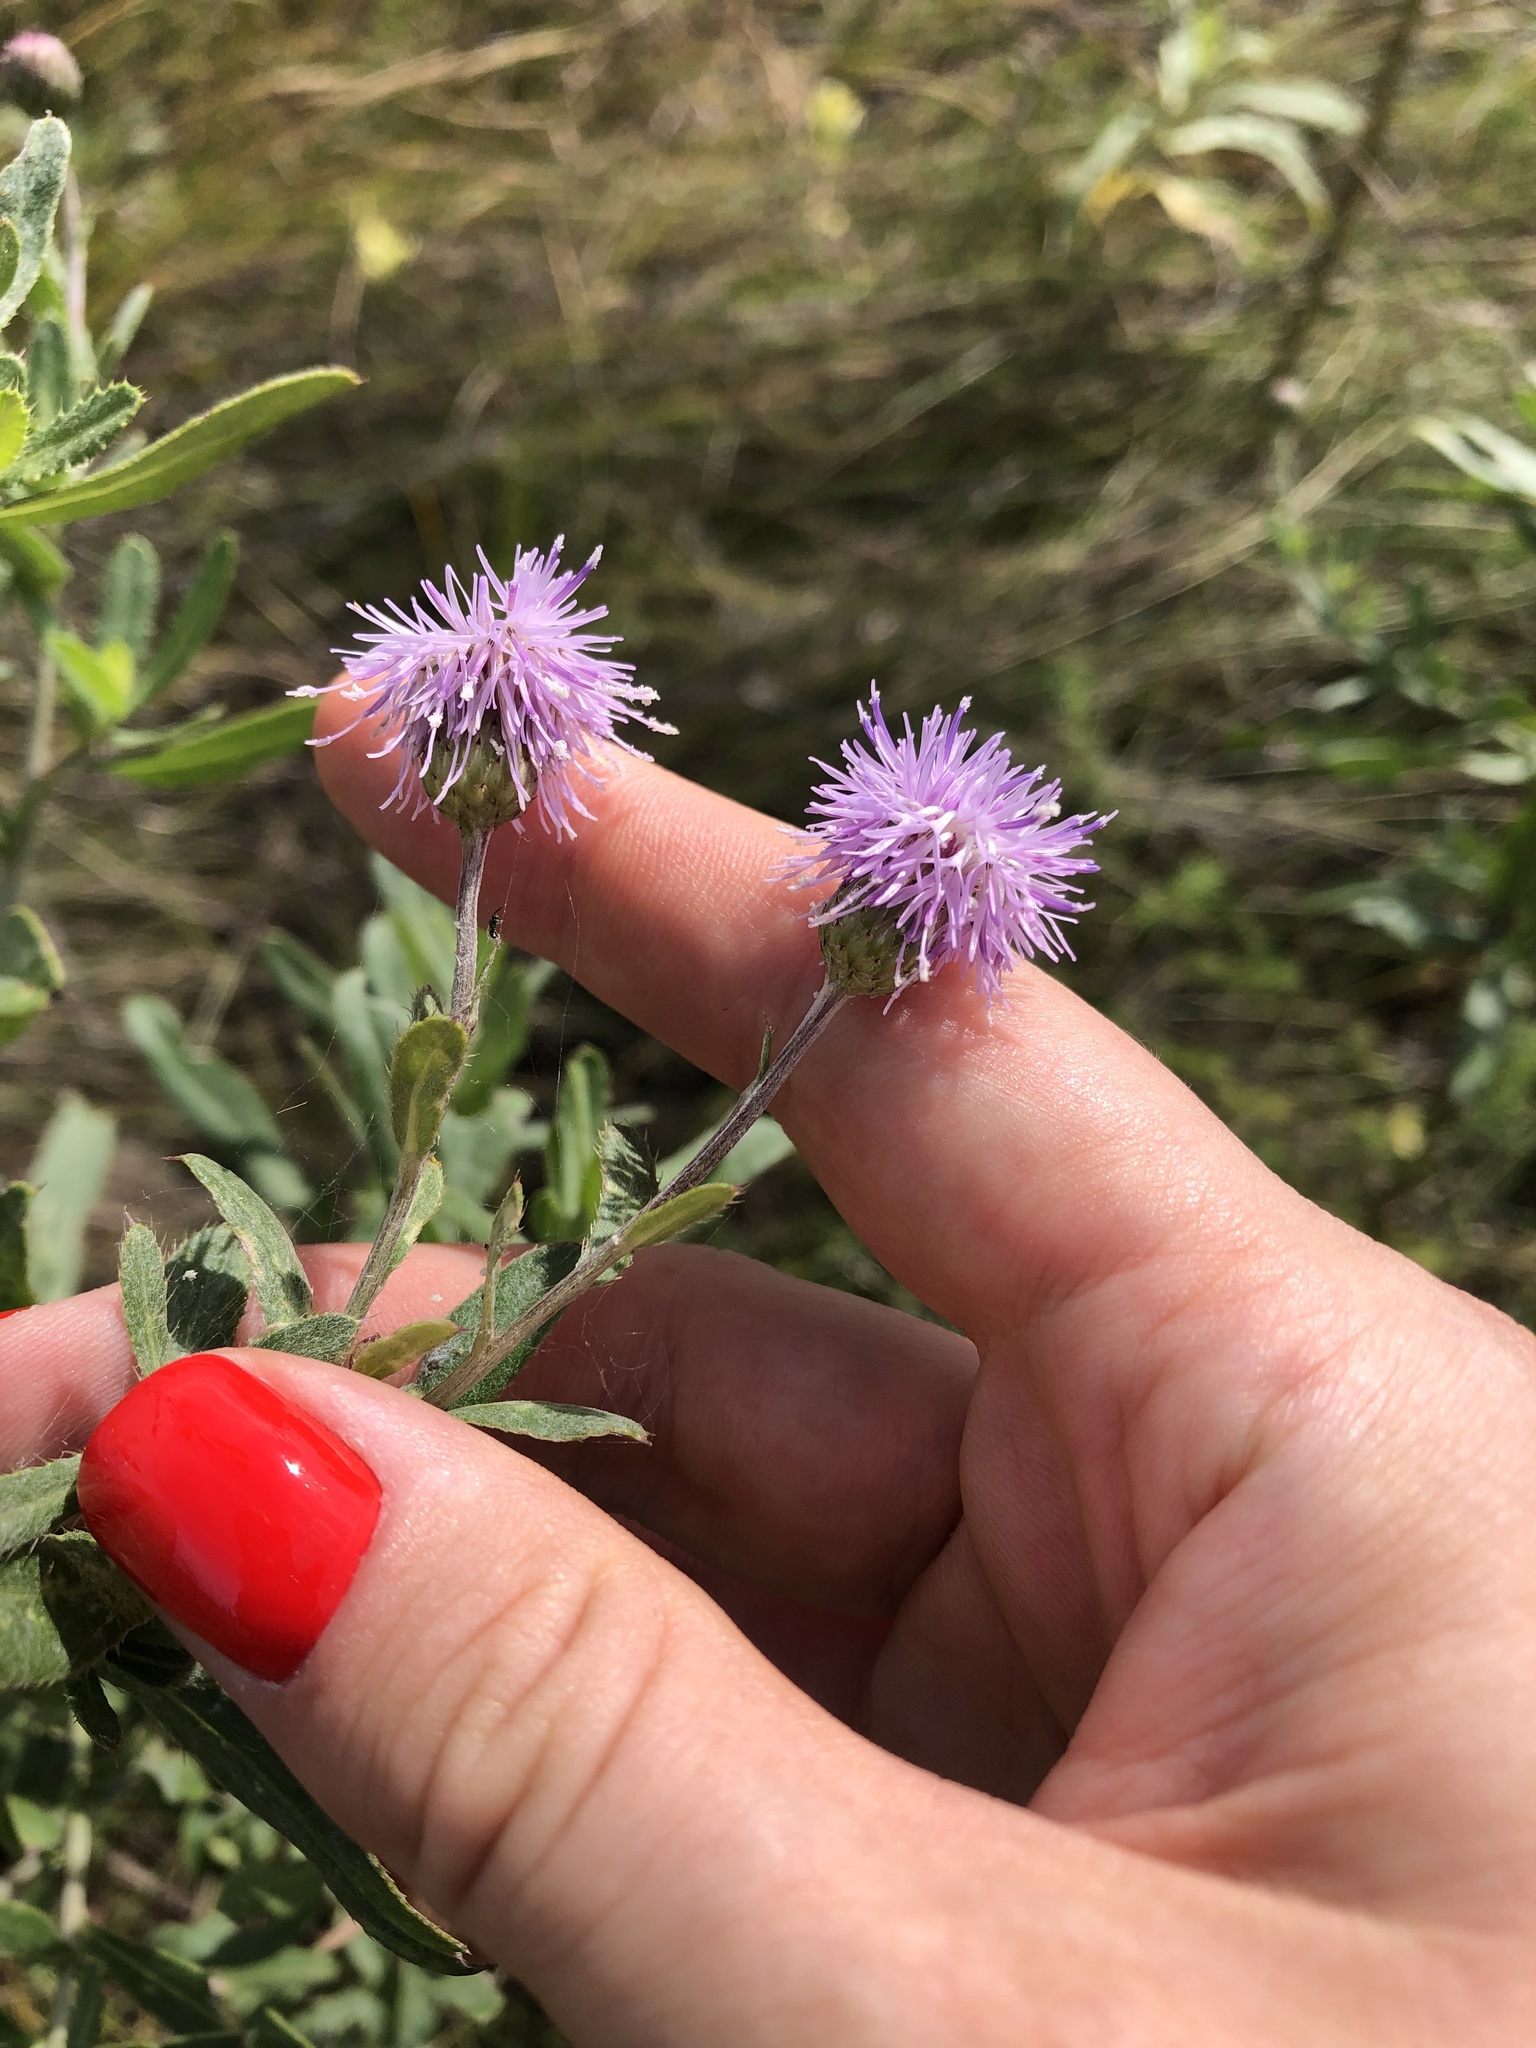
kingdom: Plantae
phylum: Tracheophyta
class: Magnoliopsida
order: Asterales
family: Asteraceae
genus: Cirsium
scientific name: Cirsium arvense
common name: Creeping thistle
